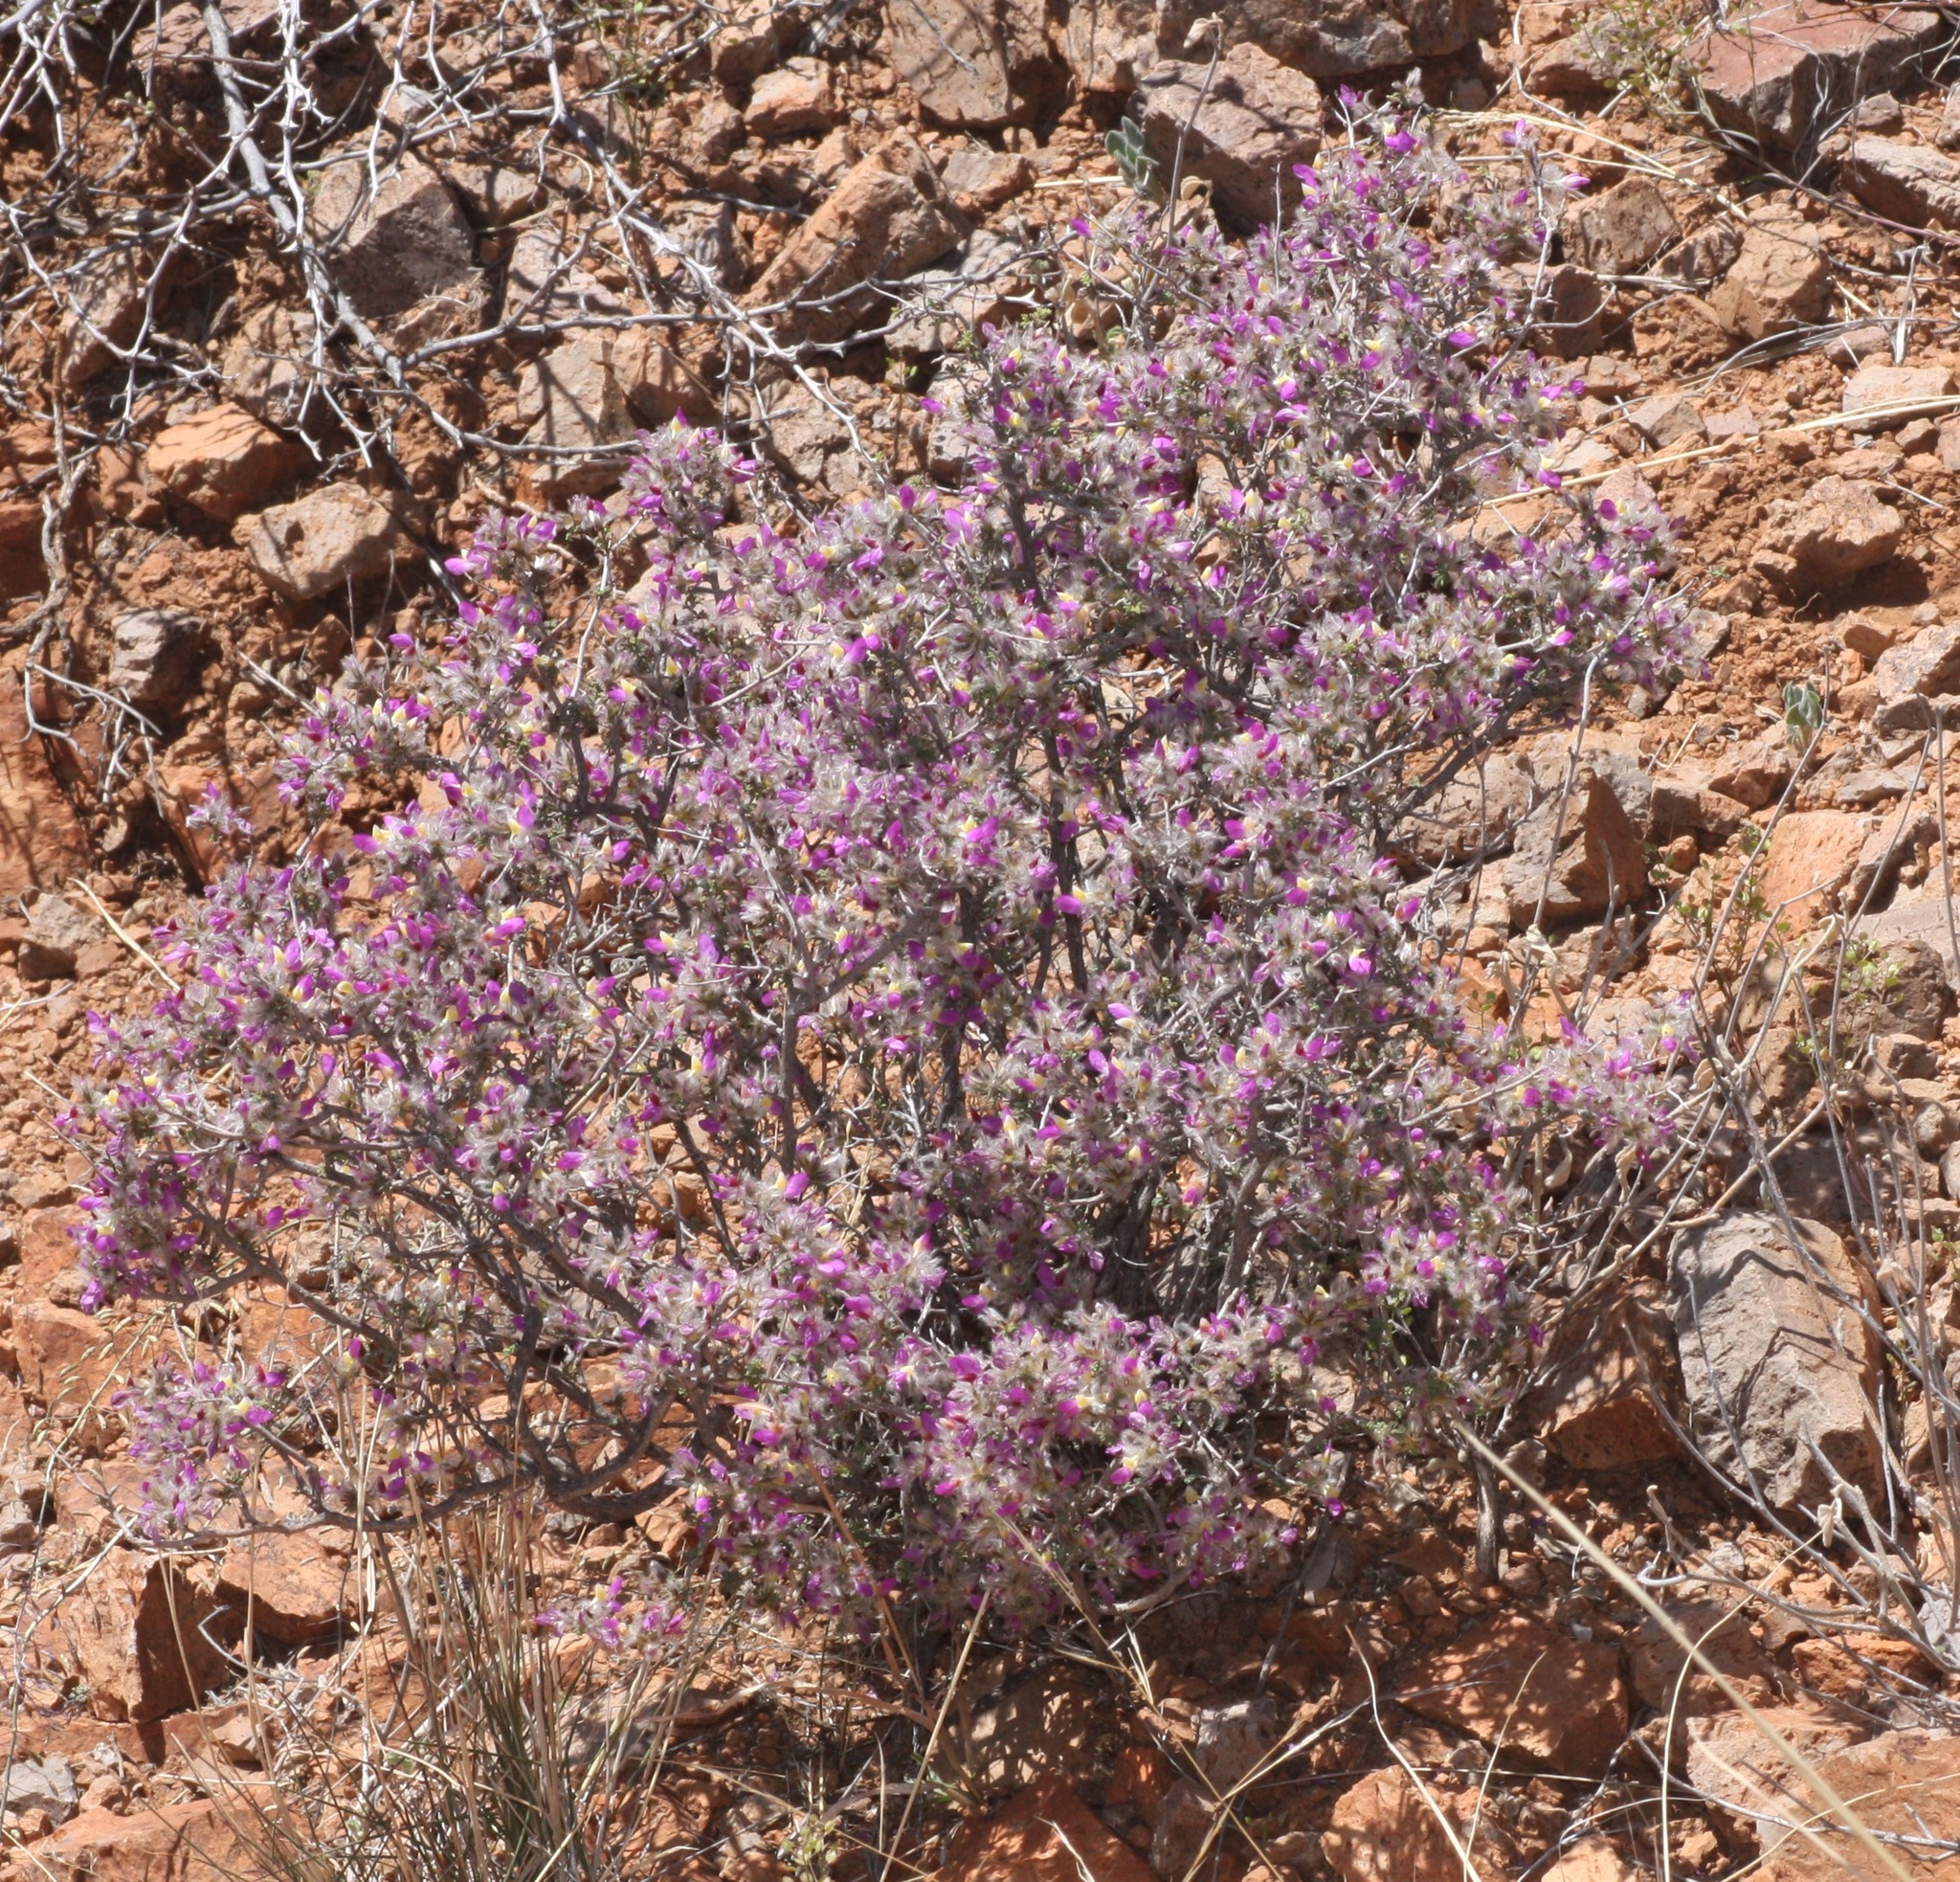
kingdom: Plantae
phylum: Tracheophyta
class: Magnoliopsida
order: Fabales
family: Fabaceae
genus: Dalea
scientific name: Dalea formosa
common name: Feather-plume dalea
